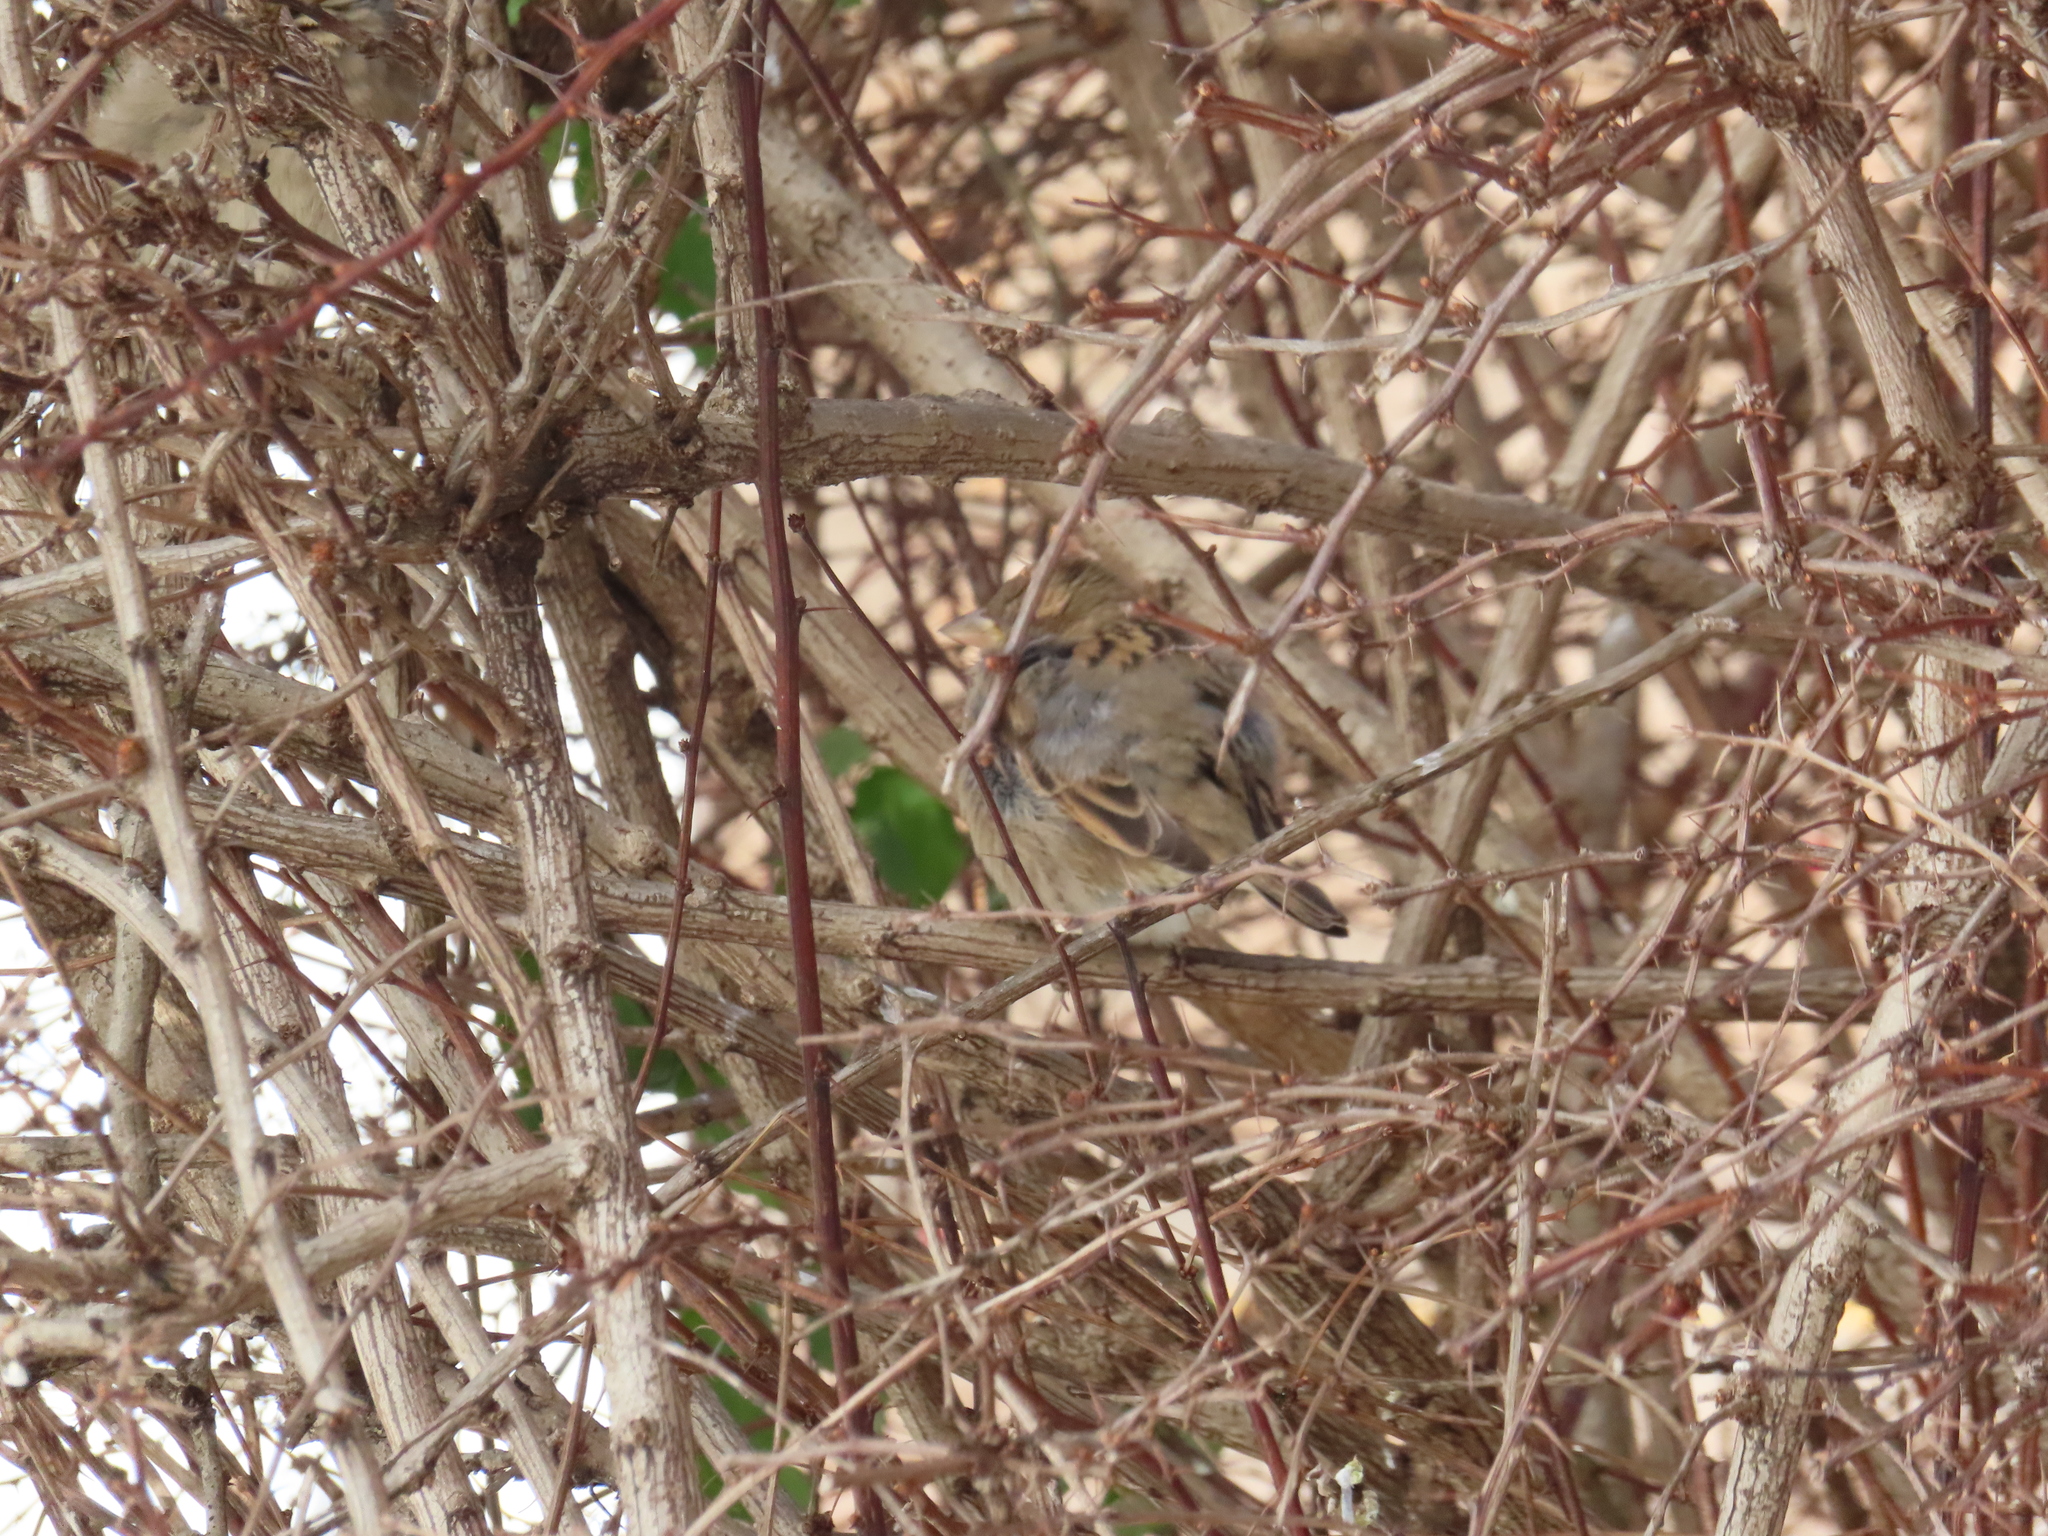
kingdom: Animalia
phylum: Chordata
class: Aves
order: Passeriformes
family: Passeridae
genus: Passer
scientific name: Passer domesticus
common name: House sparrow
